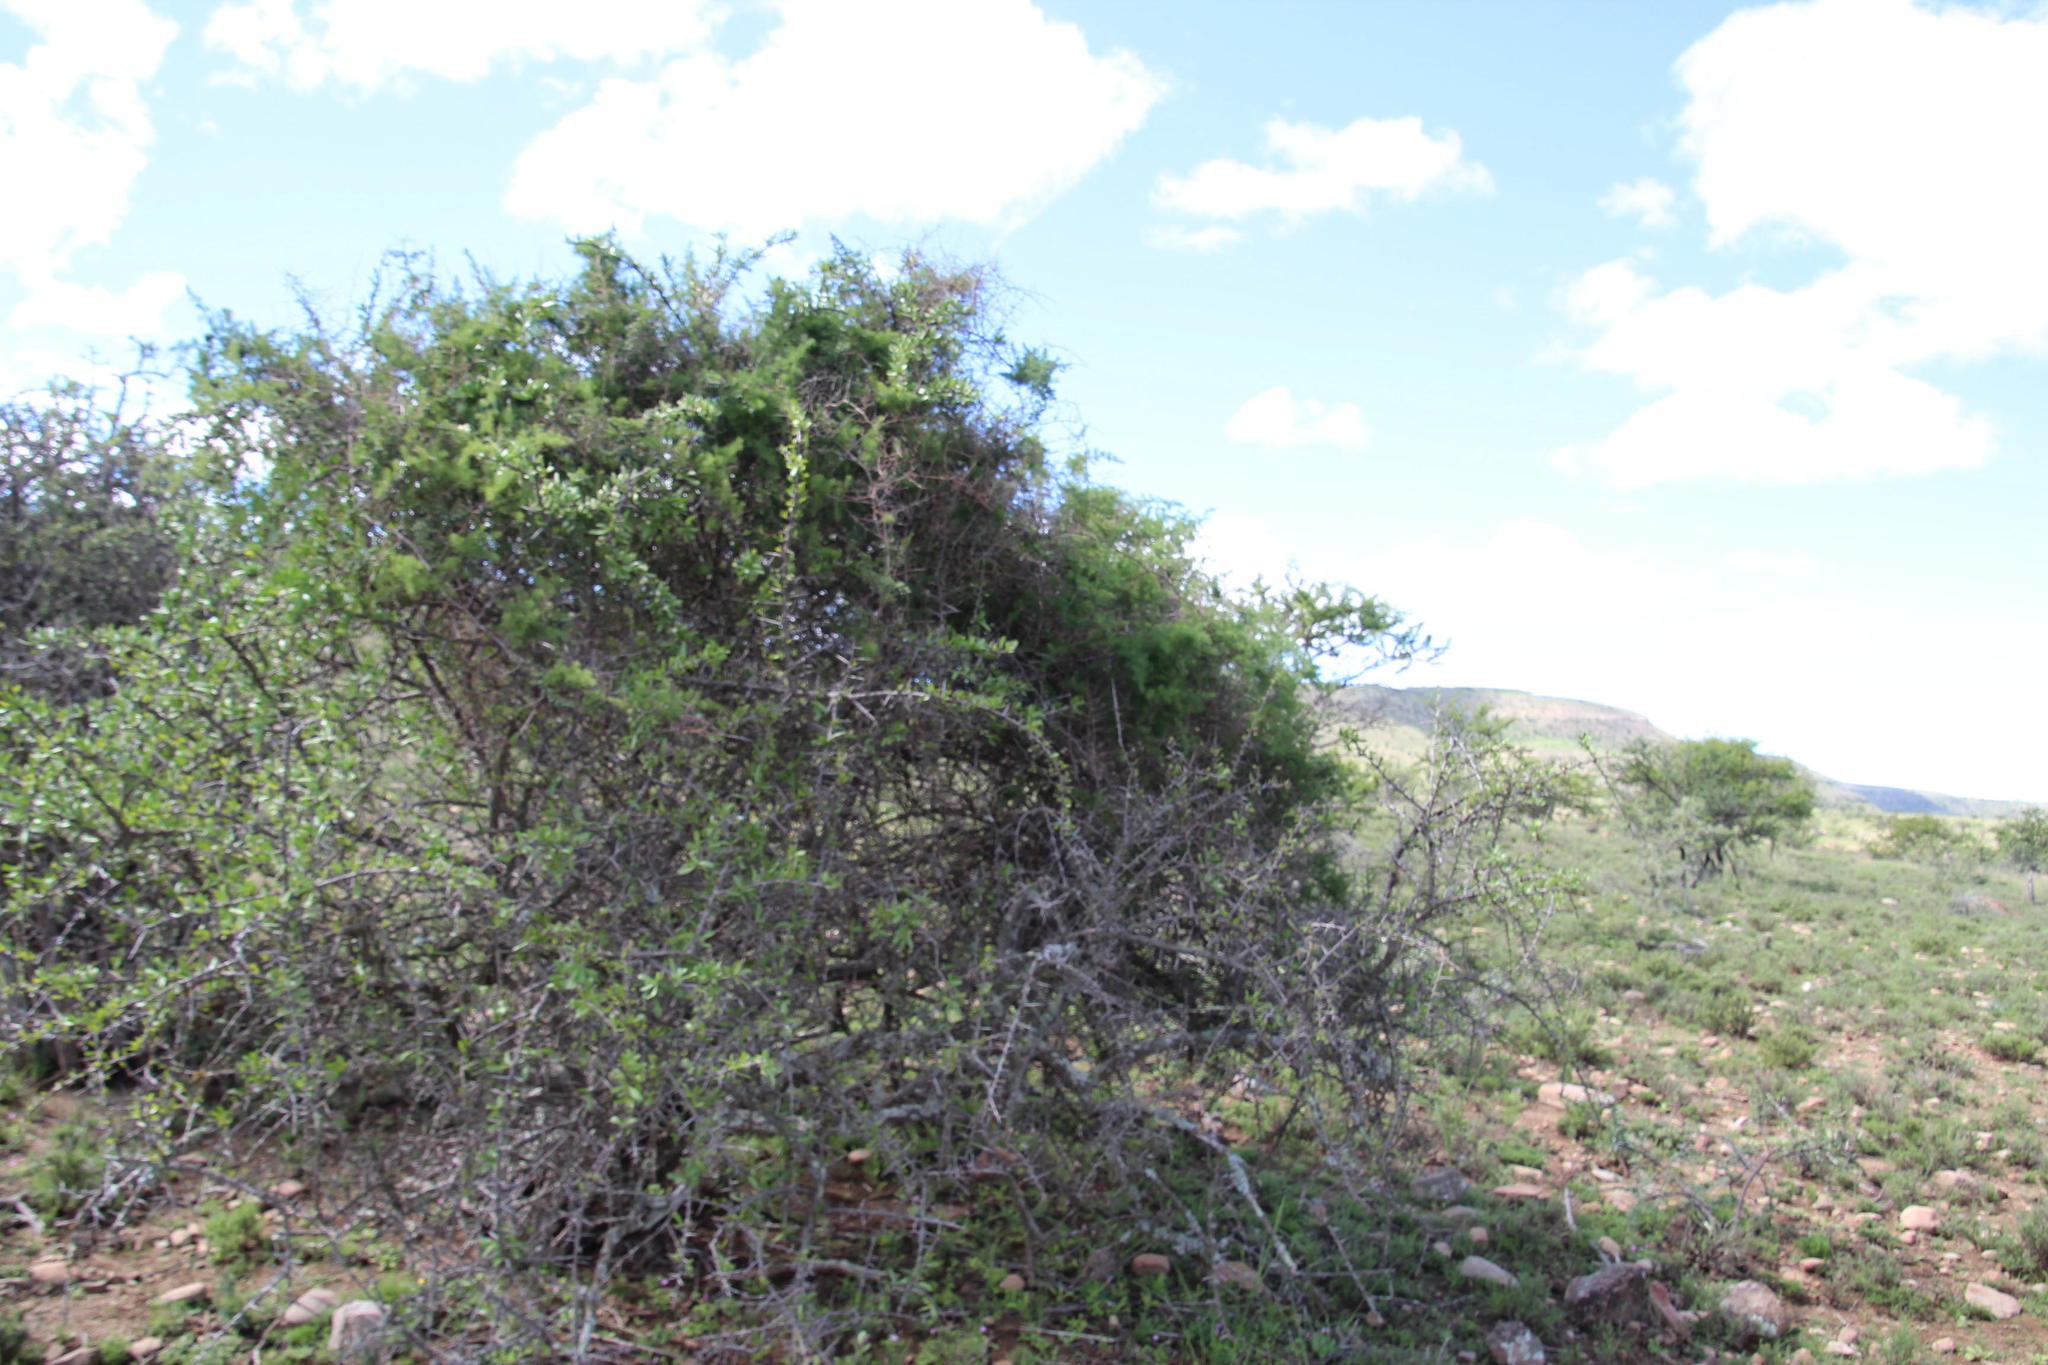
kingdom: Plantae
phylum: Tracheophyta
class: Liliopsida
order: Asparagales
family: Asparagaceae
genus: Asparagus
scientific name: Asparagus aethiopicus
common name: Sprenger's asparagus fern
